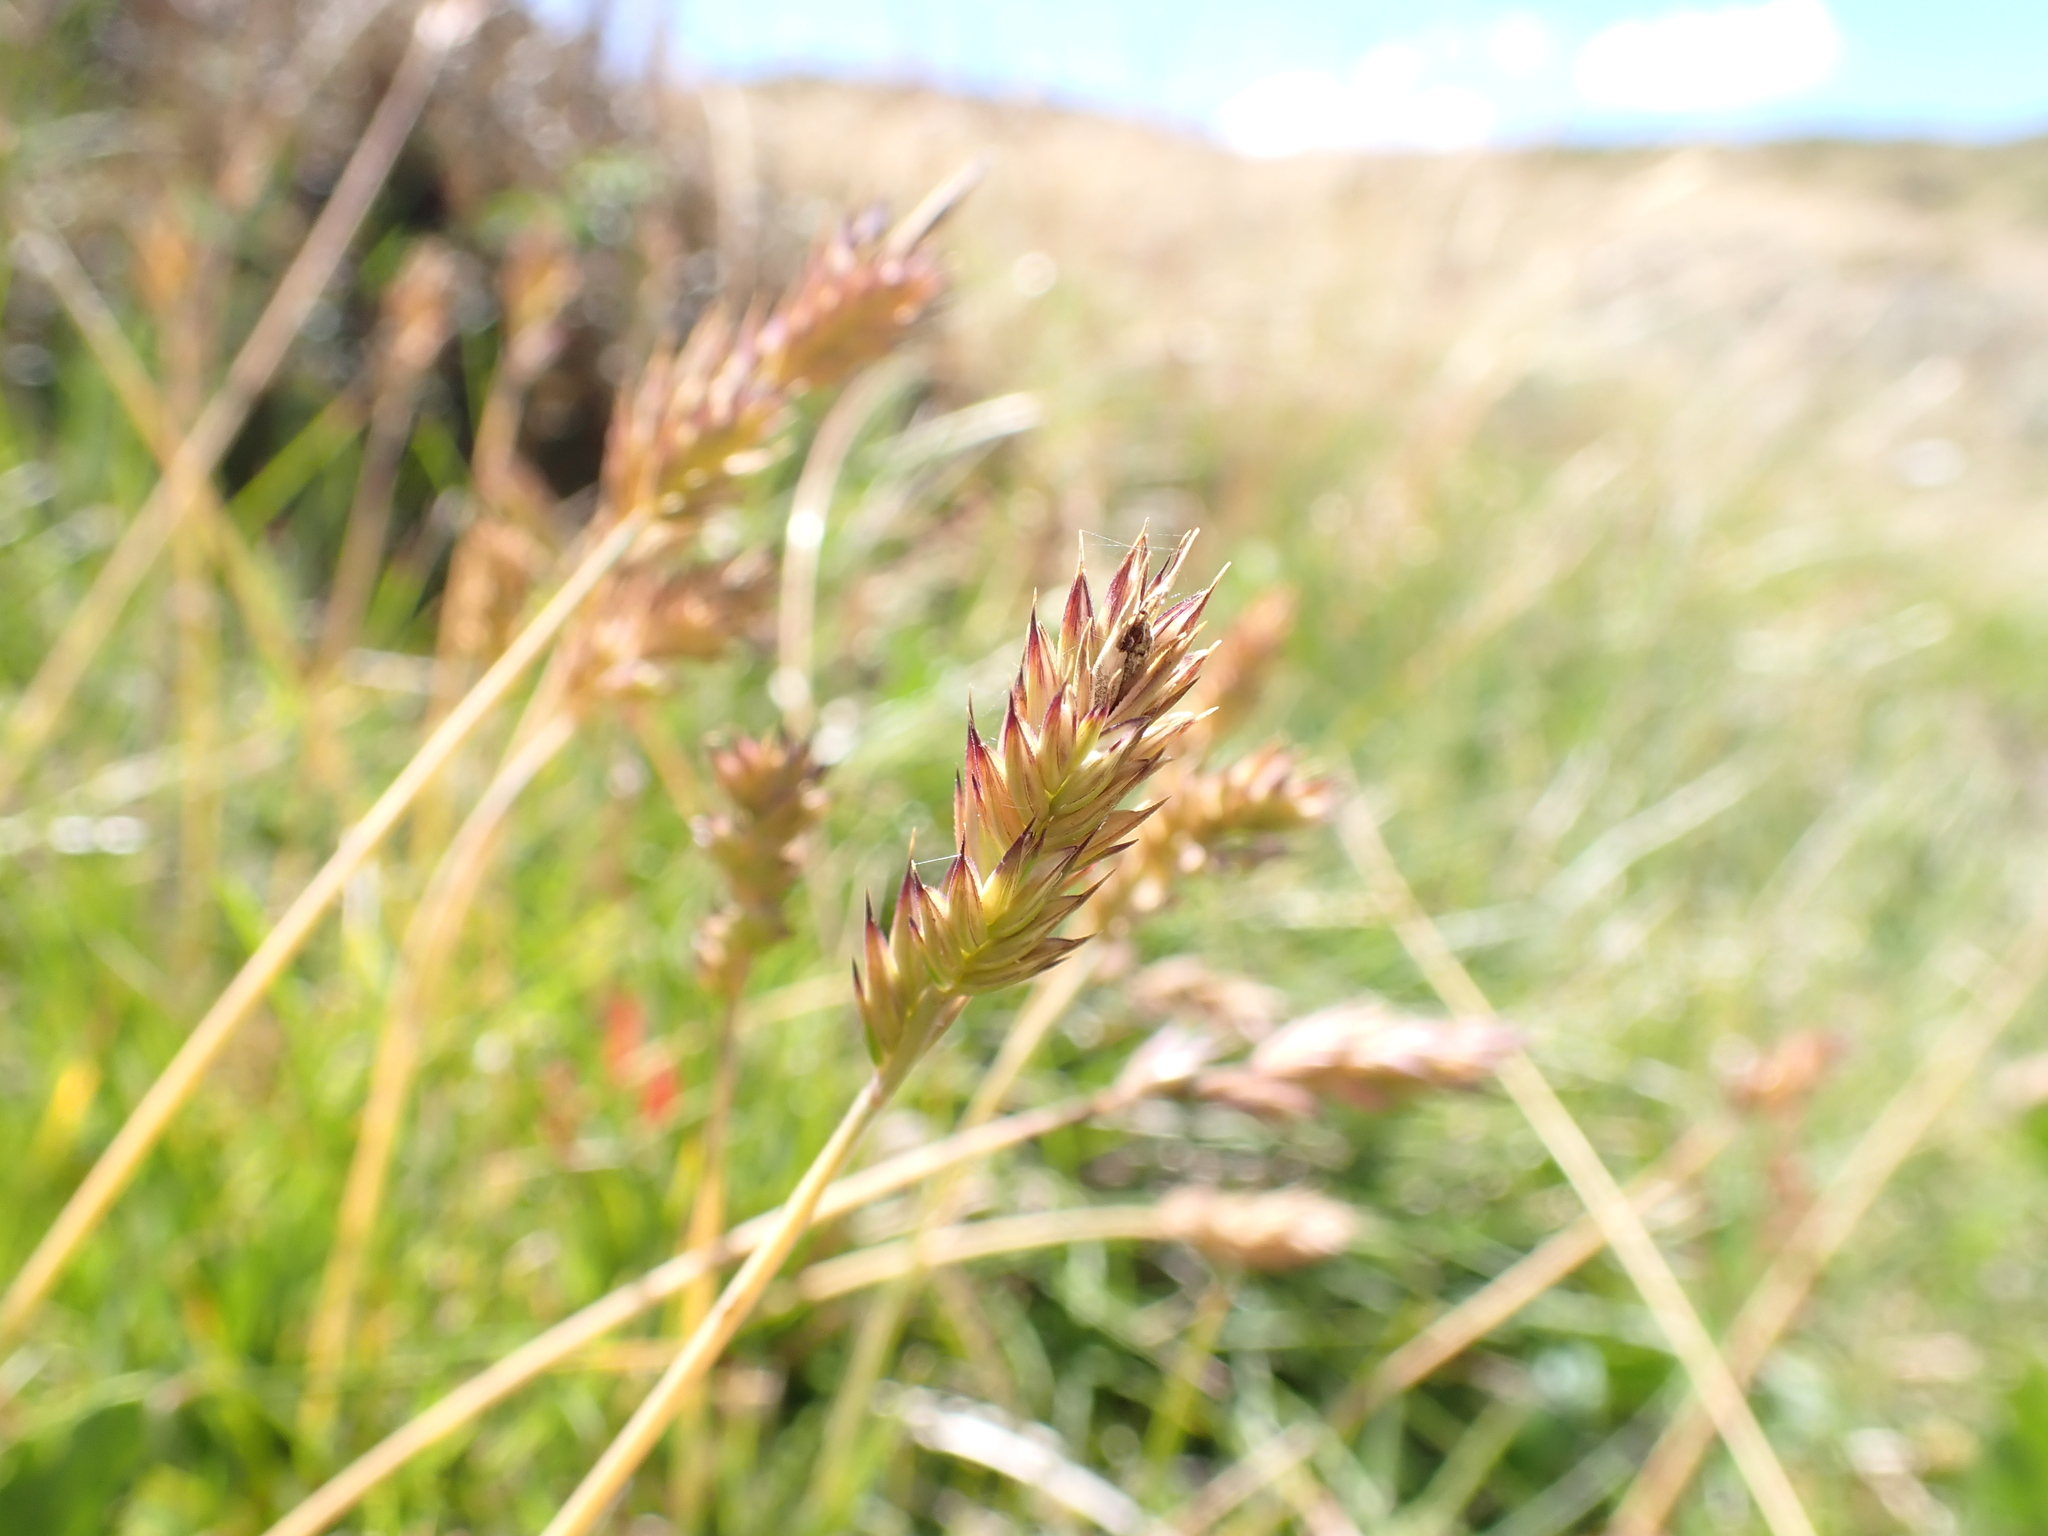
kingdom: Plantae
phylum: Tracheophyta
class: Liliopsida
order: Poales
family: Poaceae
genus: Australopyrum
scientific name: Australopyrum velutinum
